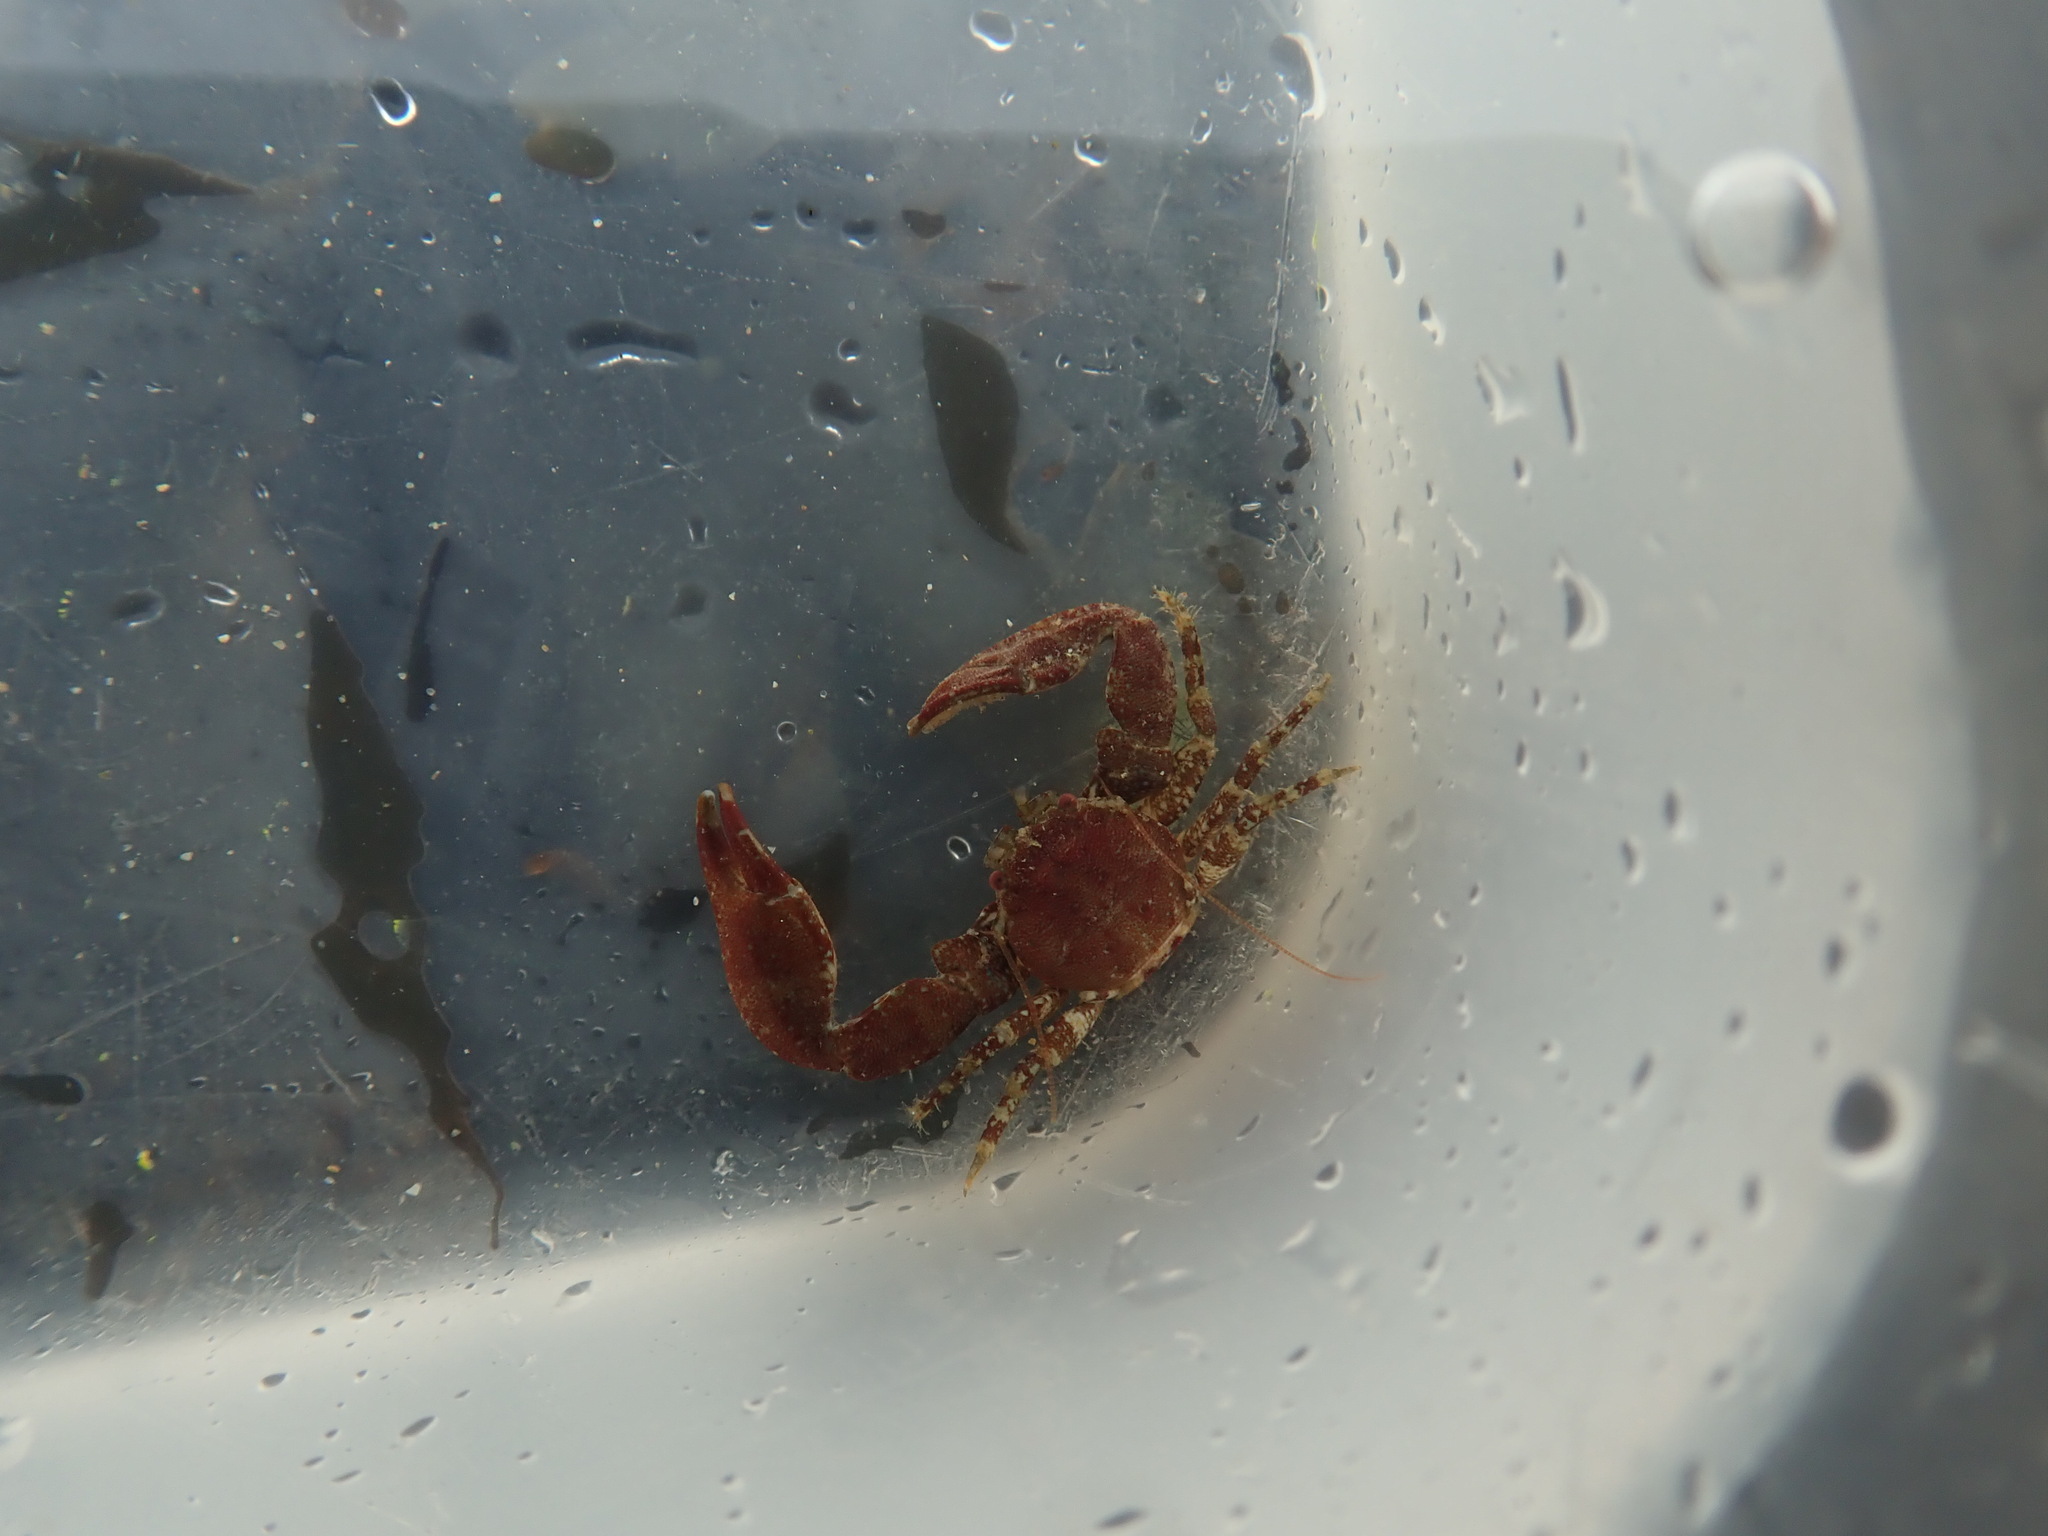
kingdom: Animalia
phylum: Arthropoda
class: Malacostraca
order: Decapoda
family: Porcellanidae
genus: Pisidia
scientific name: Pisidia longicornis
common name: Long clawed porcelain crab
